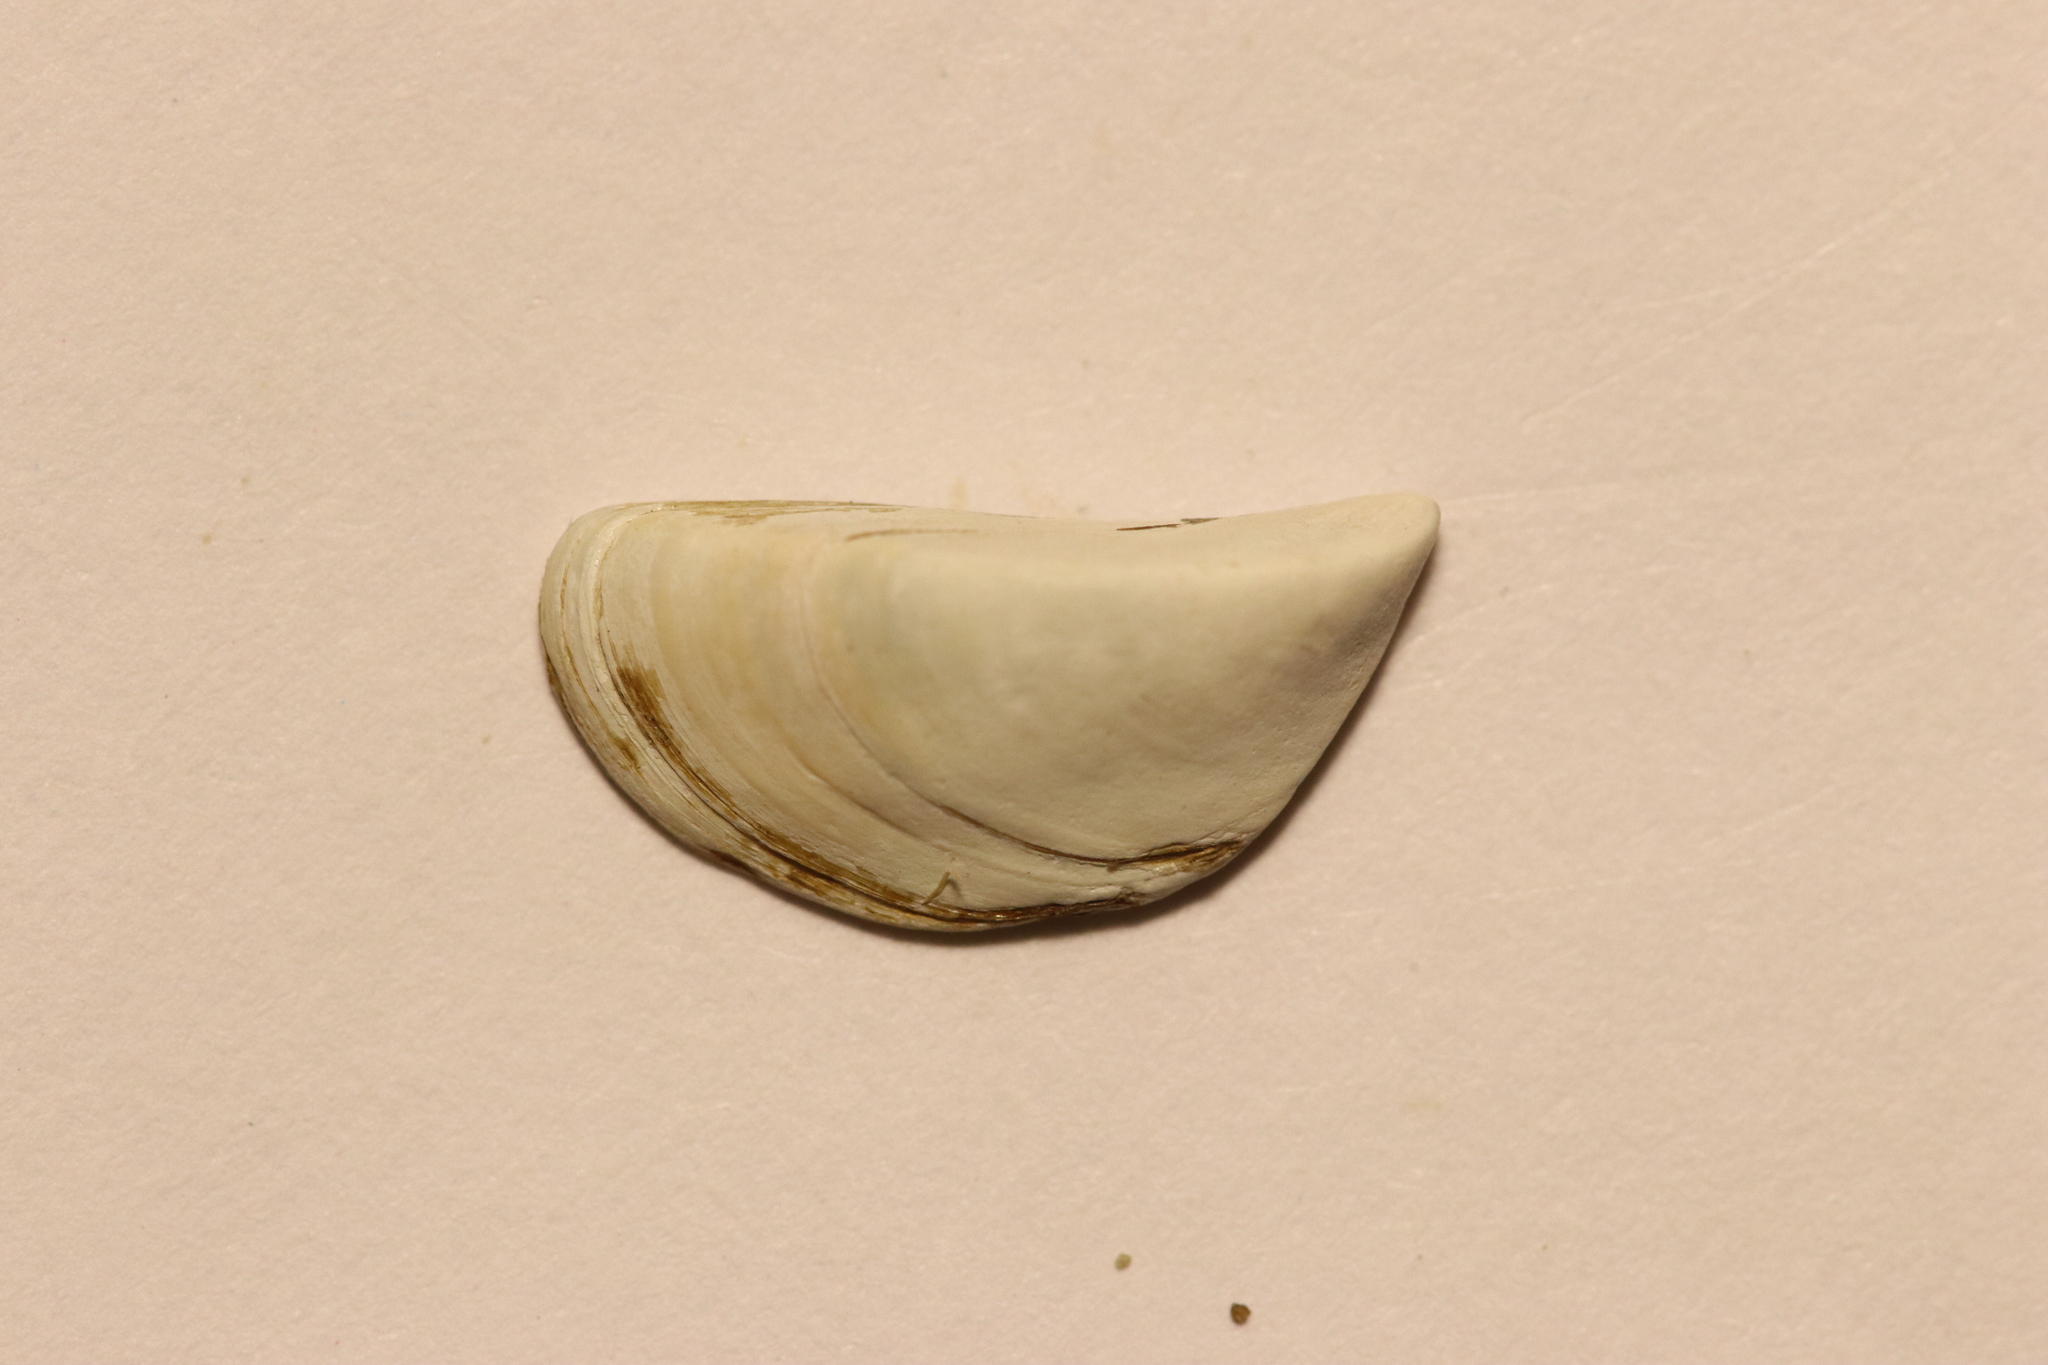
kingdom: Animalia
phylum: Mollusca
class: Bivalvia
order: Myida
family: Dreissenidae
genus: Dreissena
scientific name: Dreissena polymorpha
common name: Zebra mussel
